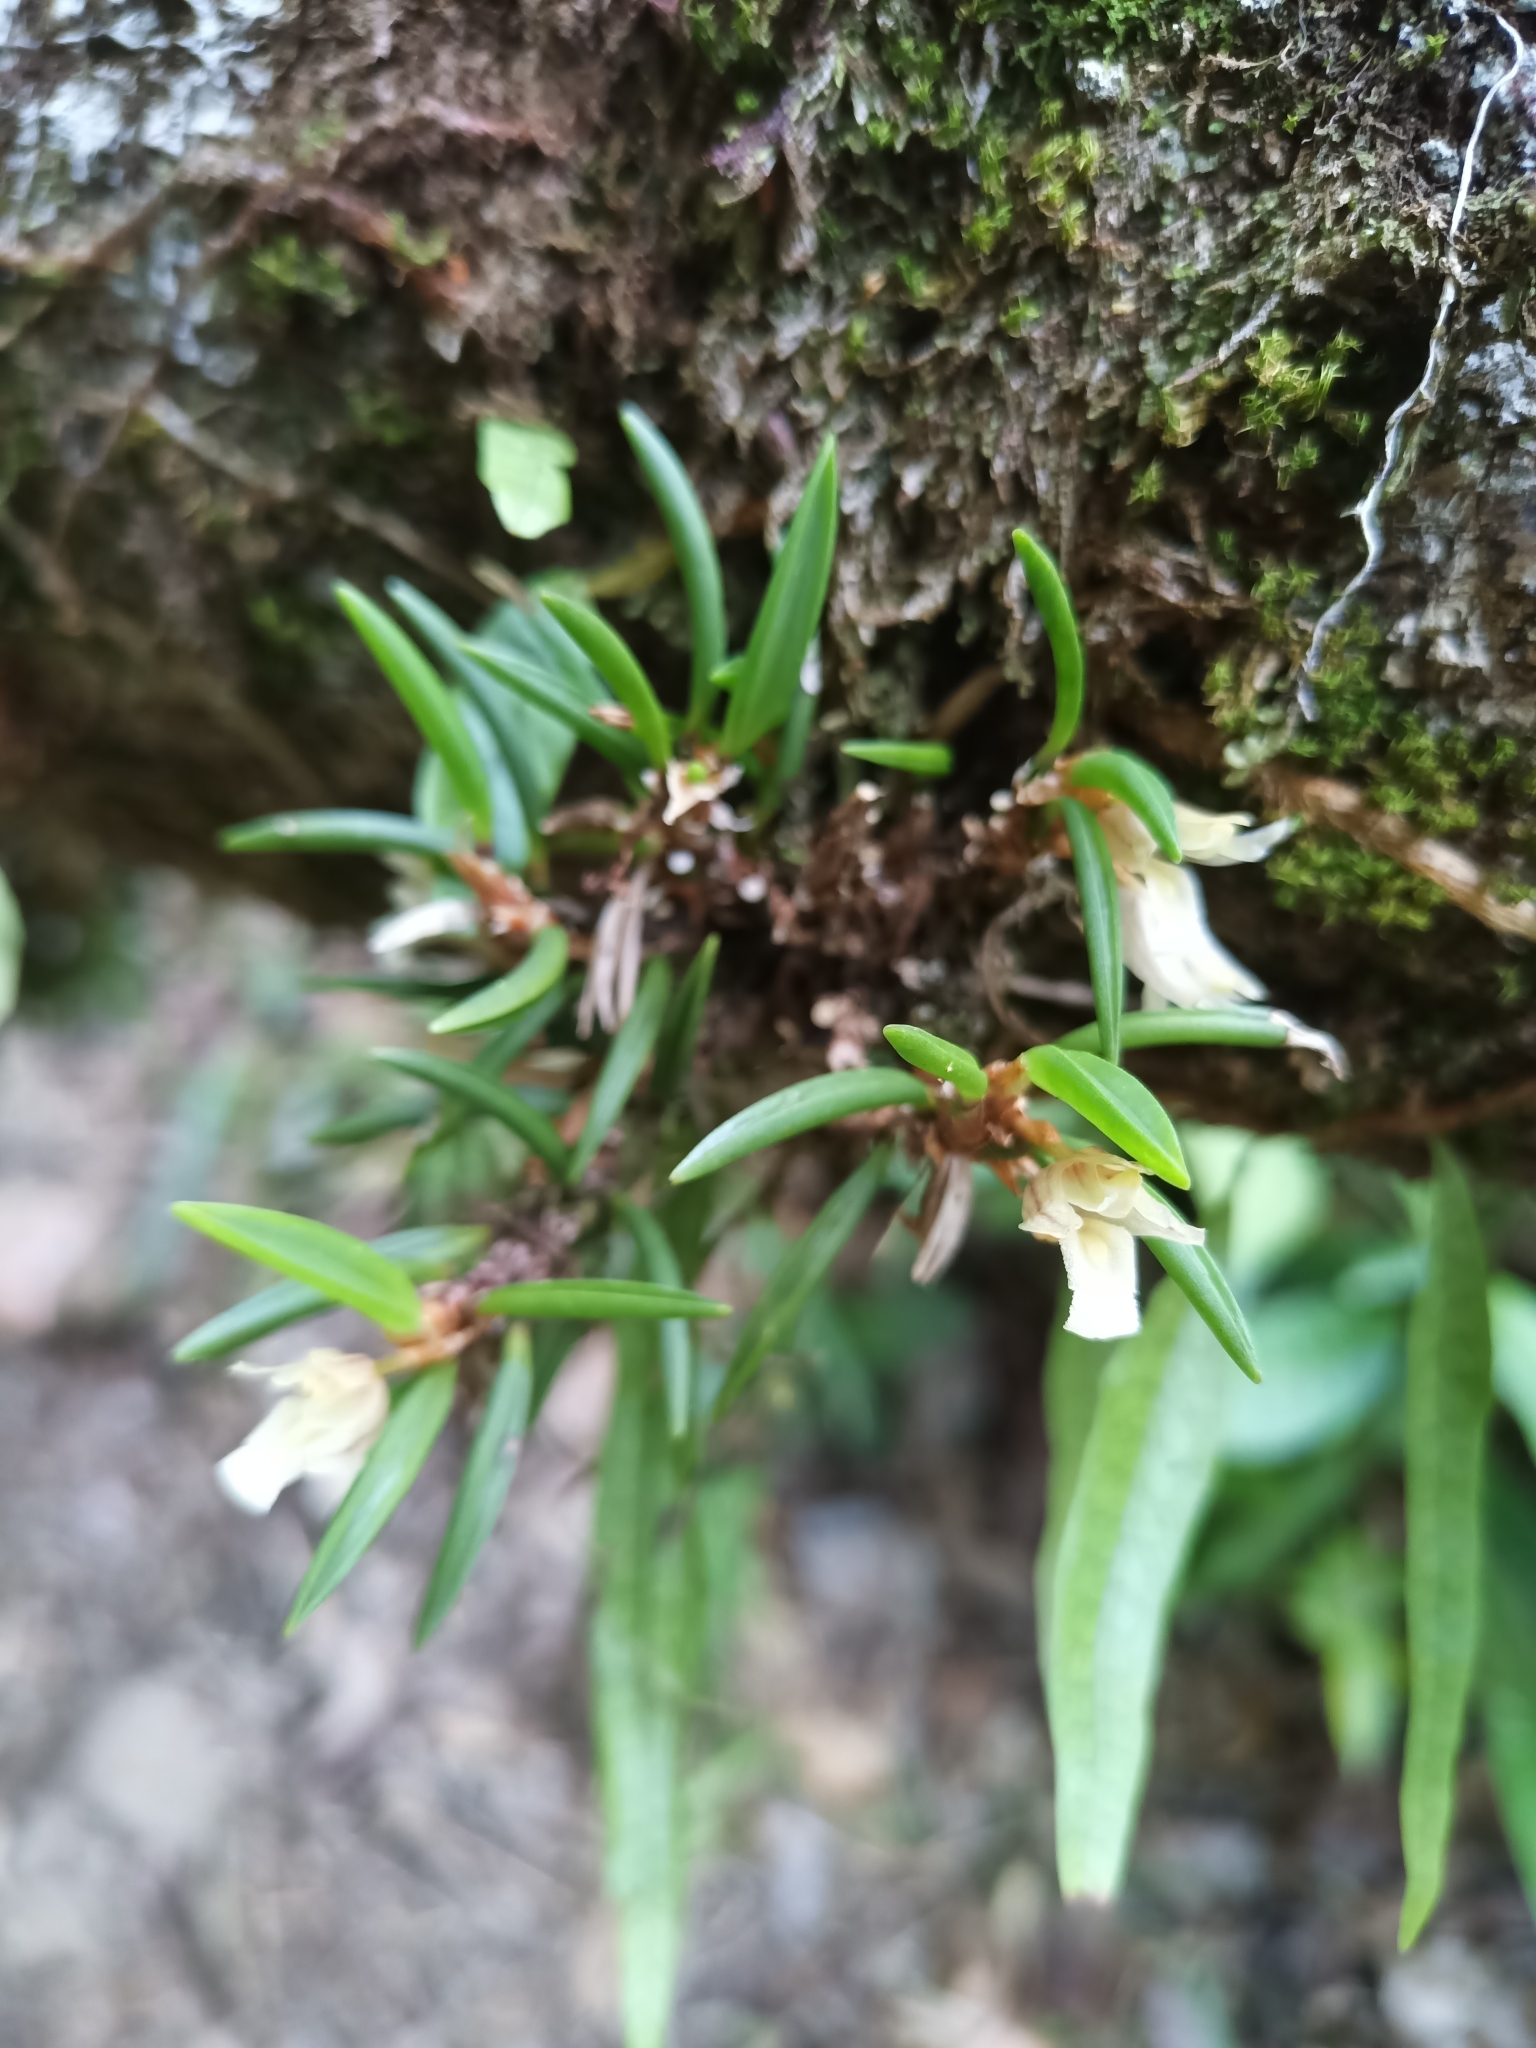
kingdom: Plantae
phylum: Tracheophyta
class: Liliopsida
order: Asparagales
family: Orchidaceae
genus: Maxillaria
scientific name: Maxillaria uncata
